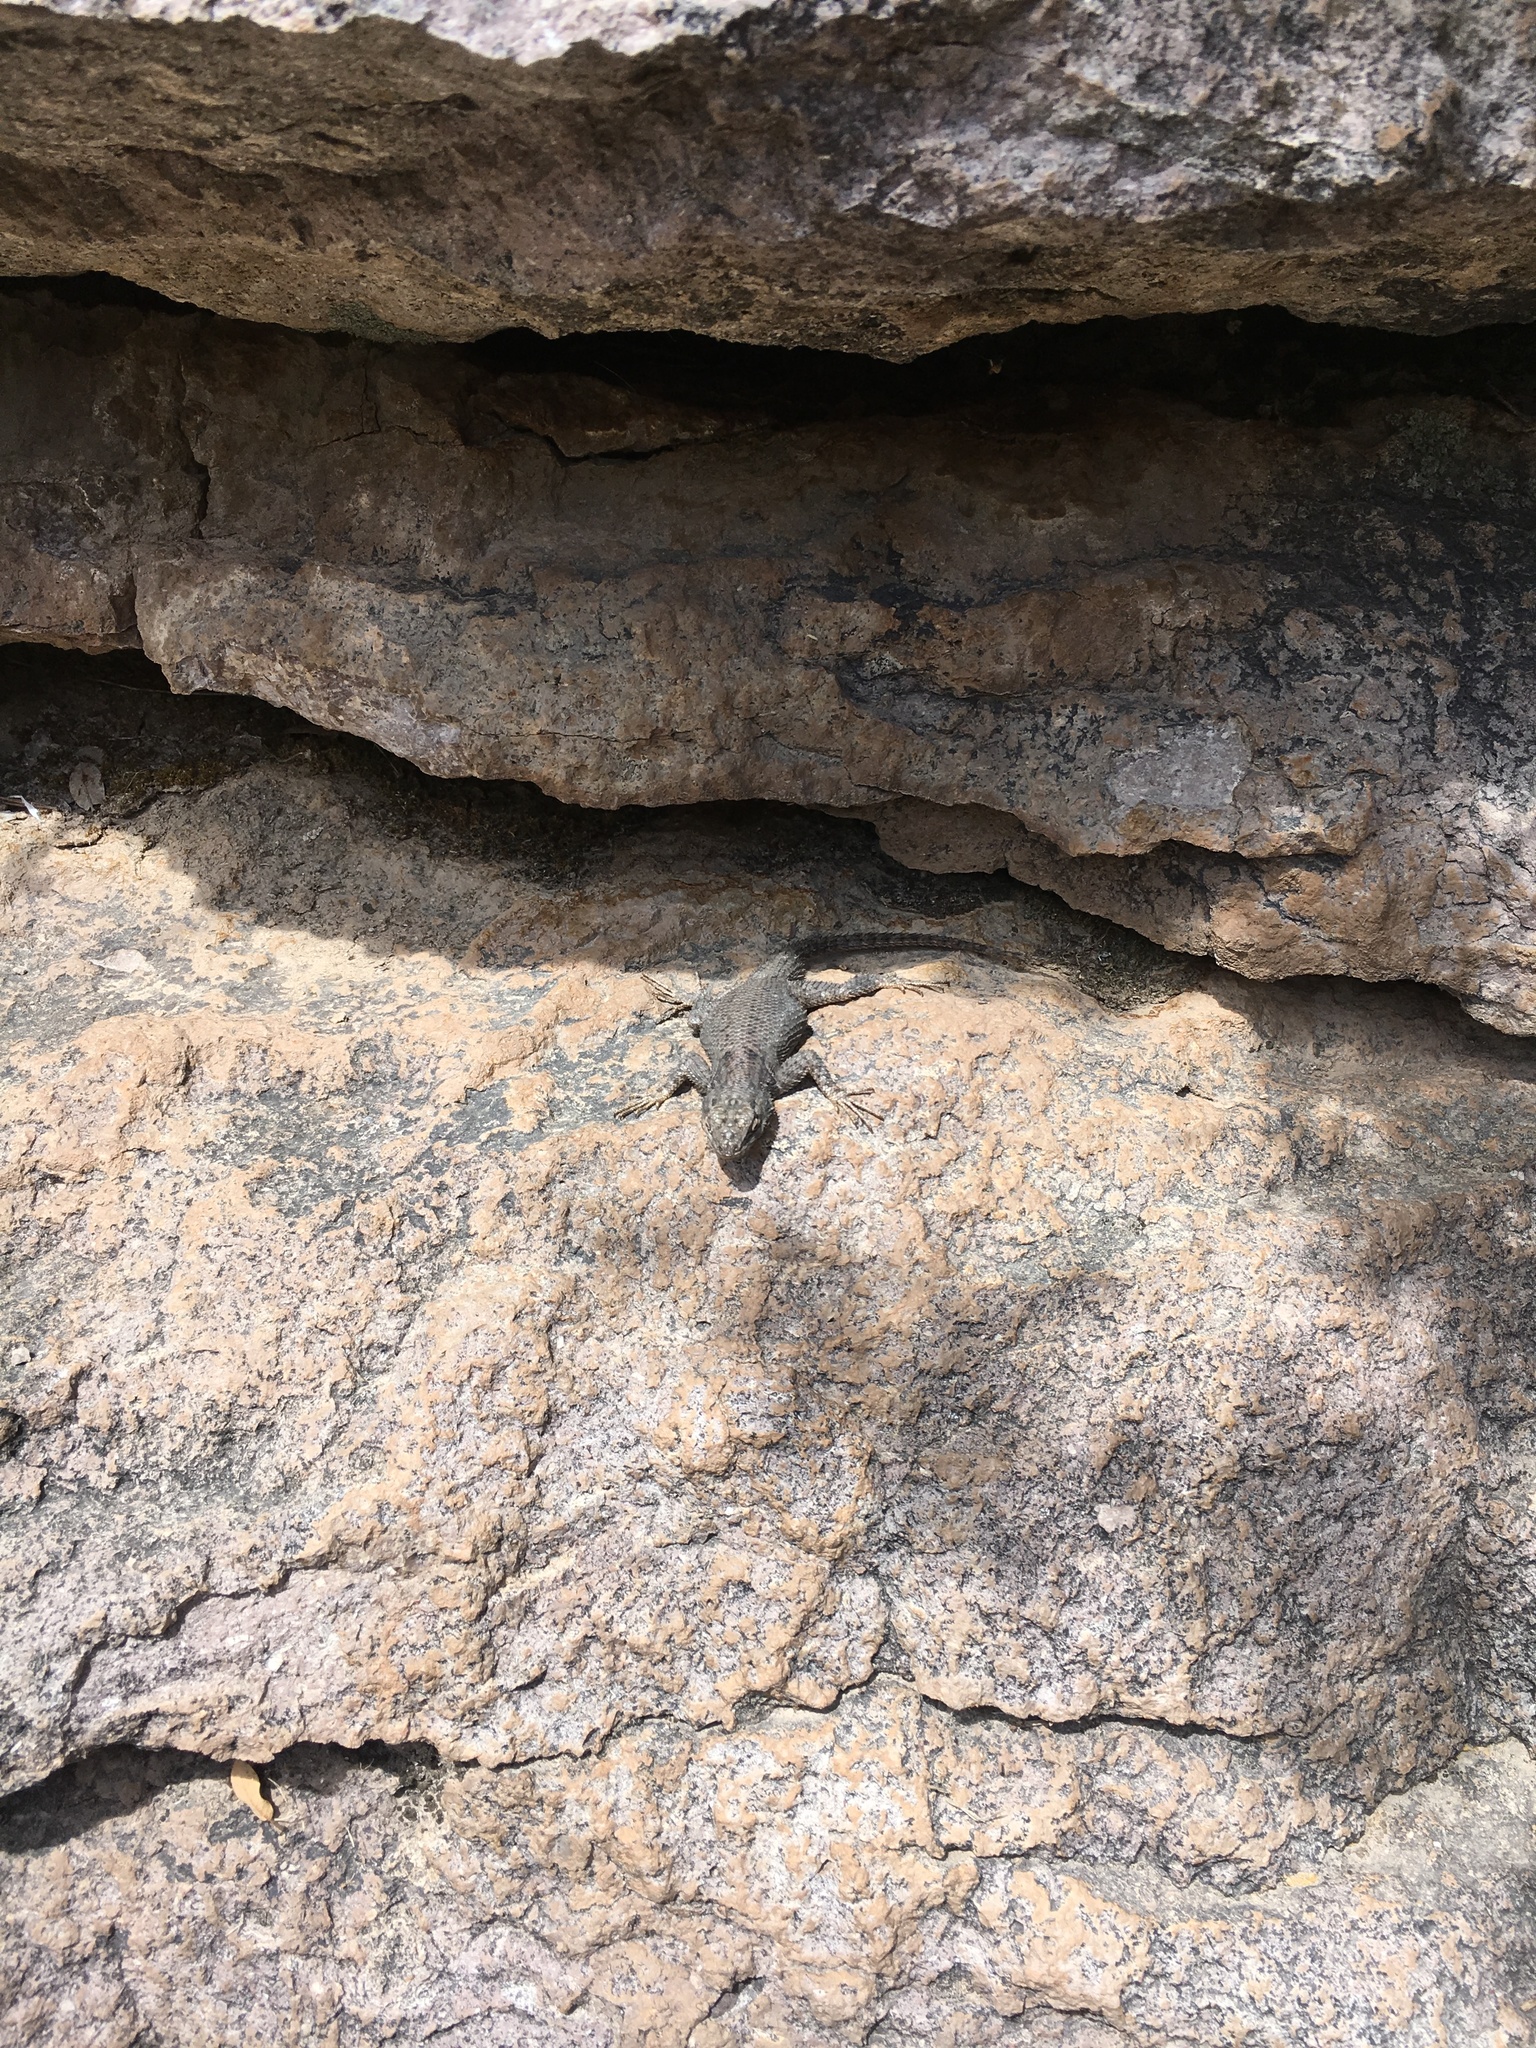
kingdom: Animalia
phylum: Chordata
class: Squamata
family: Phrynosomatidae
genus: Sceloporus
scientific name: Sceloporus jarrovii
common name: Yarrow's spiny lizard
